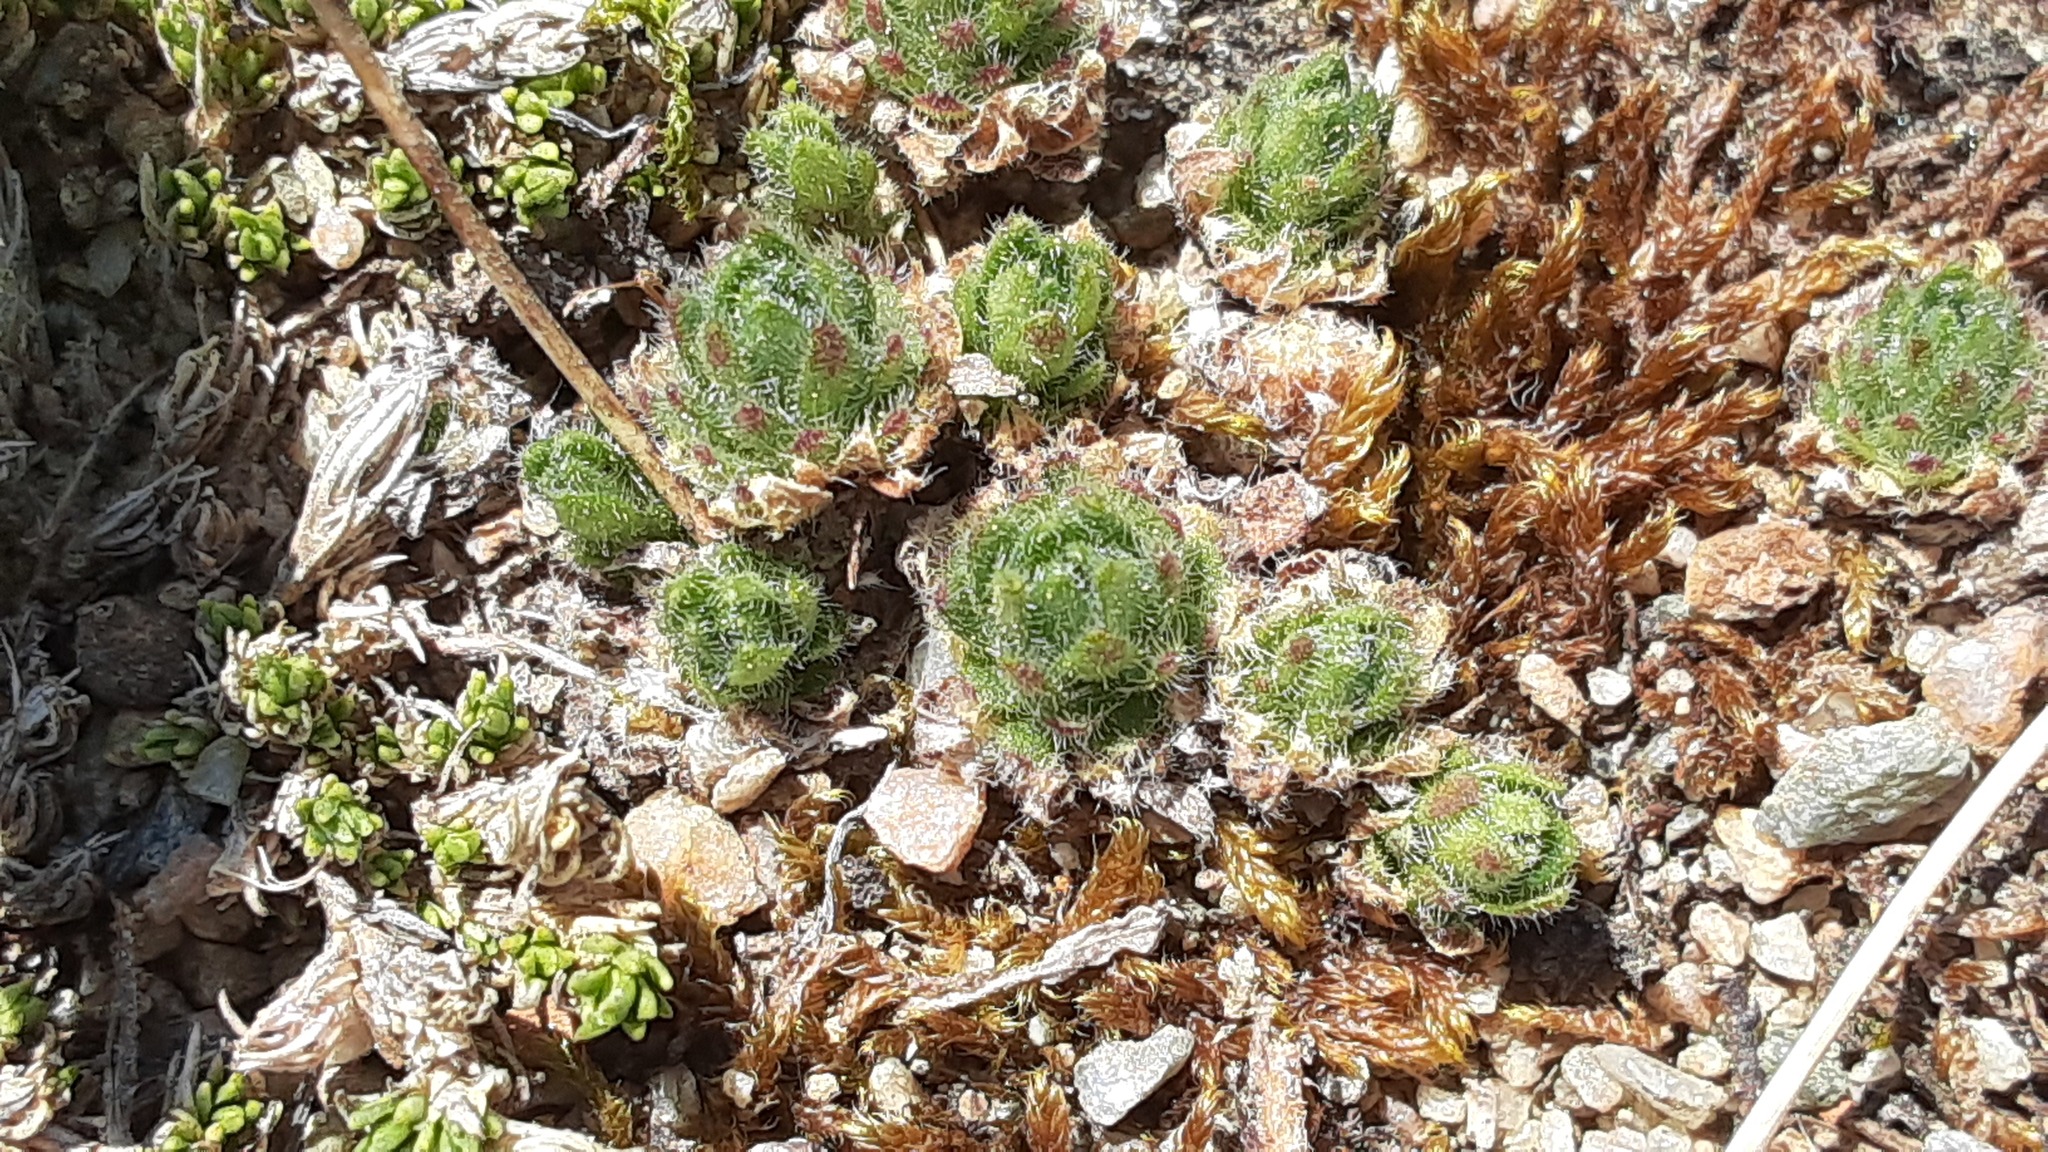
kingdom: Plantae
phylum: Tracheophyta
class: Magnoliopsida
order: Ericales
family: Primulaceae
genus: Androsace
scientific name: Androsace chamaejasme
